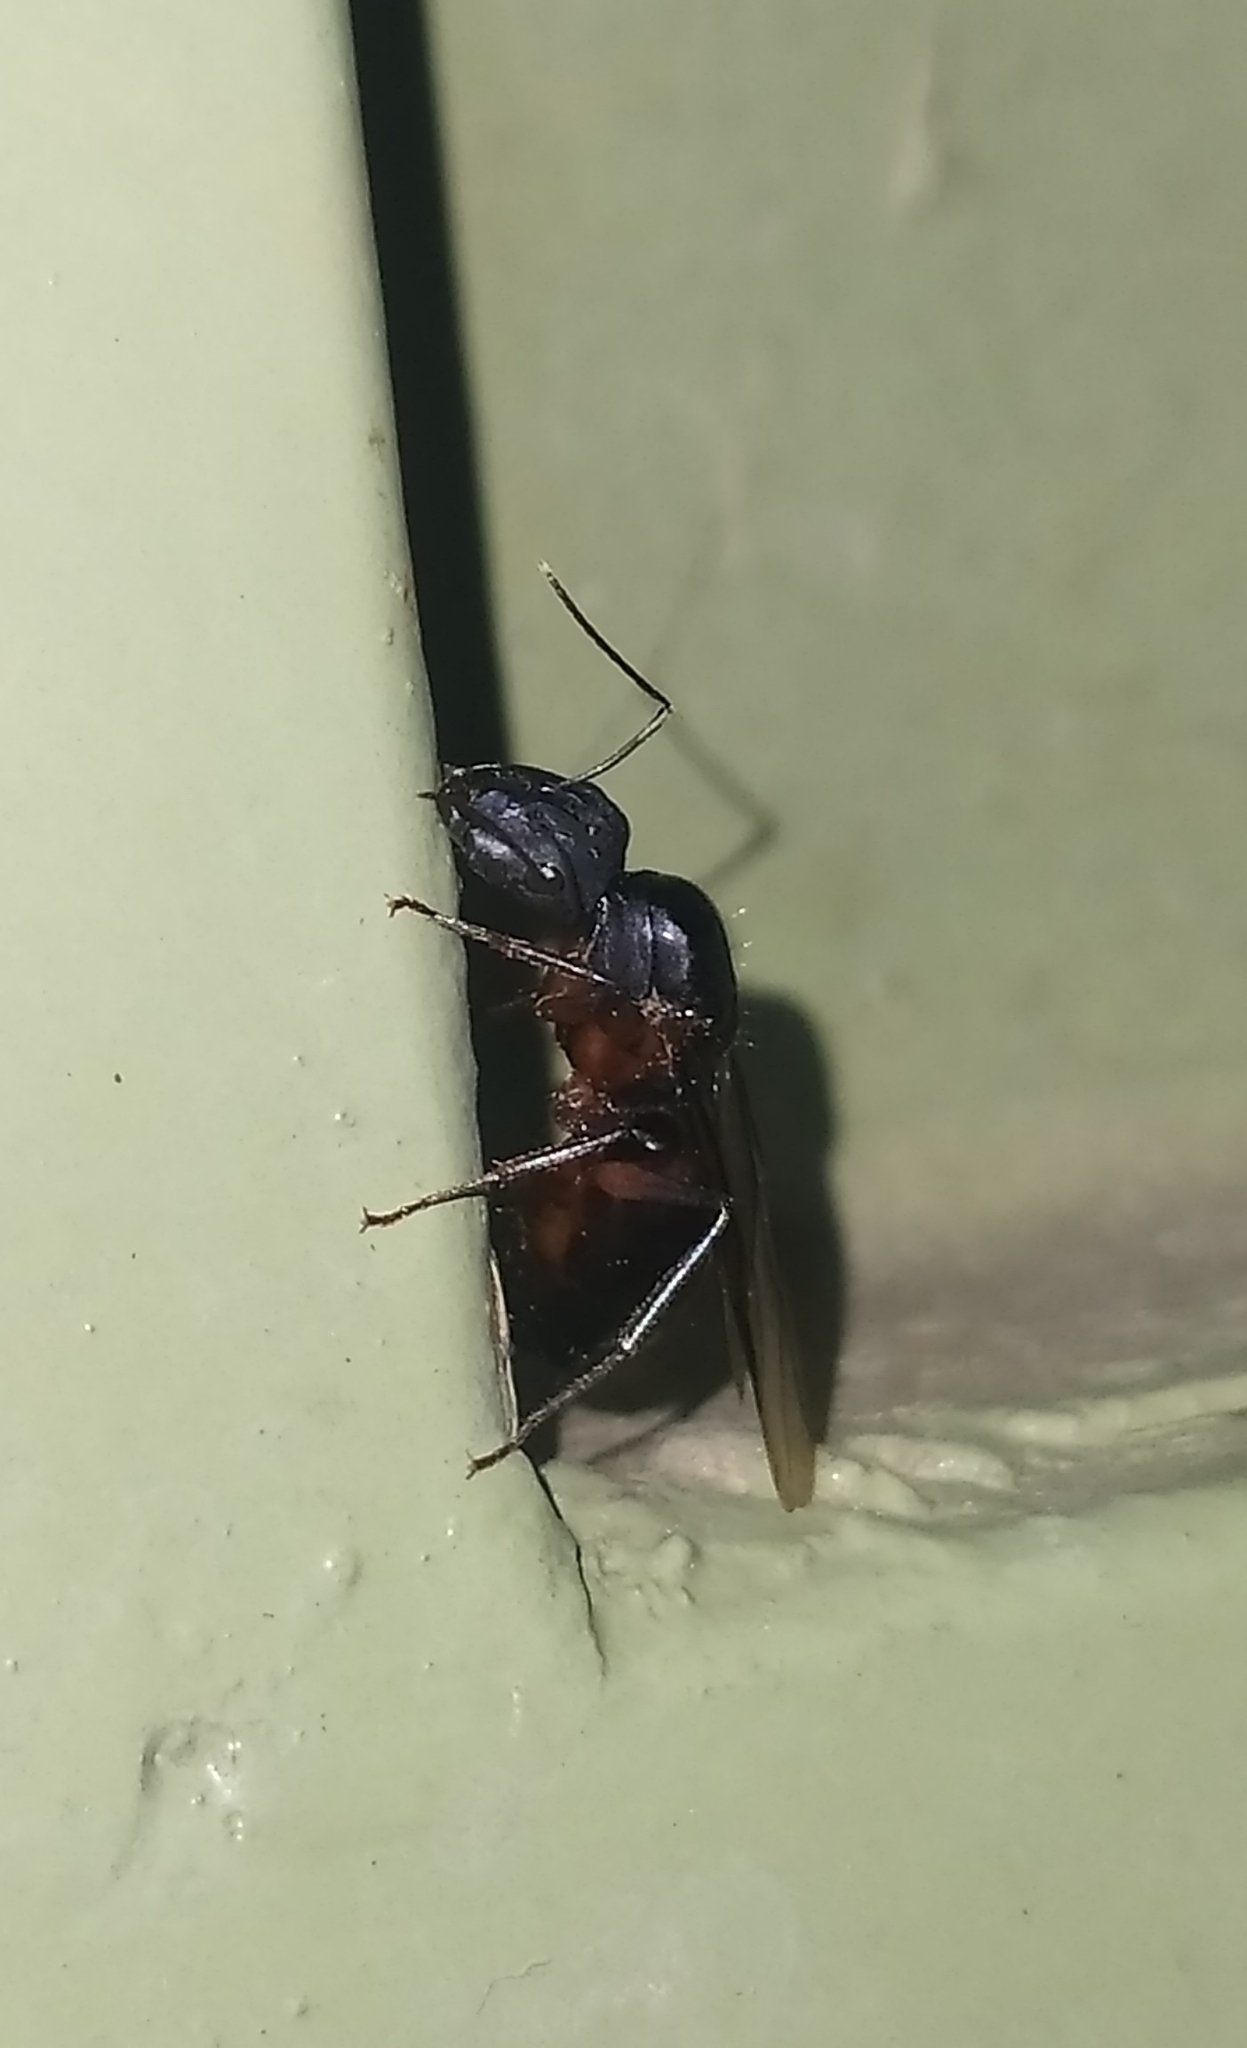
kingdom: Animalia
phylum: Arthropoda
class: Insecta
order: Hymenoptera
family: Formicidae
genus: Camponotus
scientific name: Camponotus compressus
